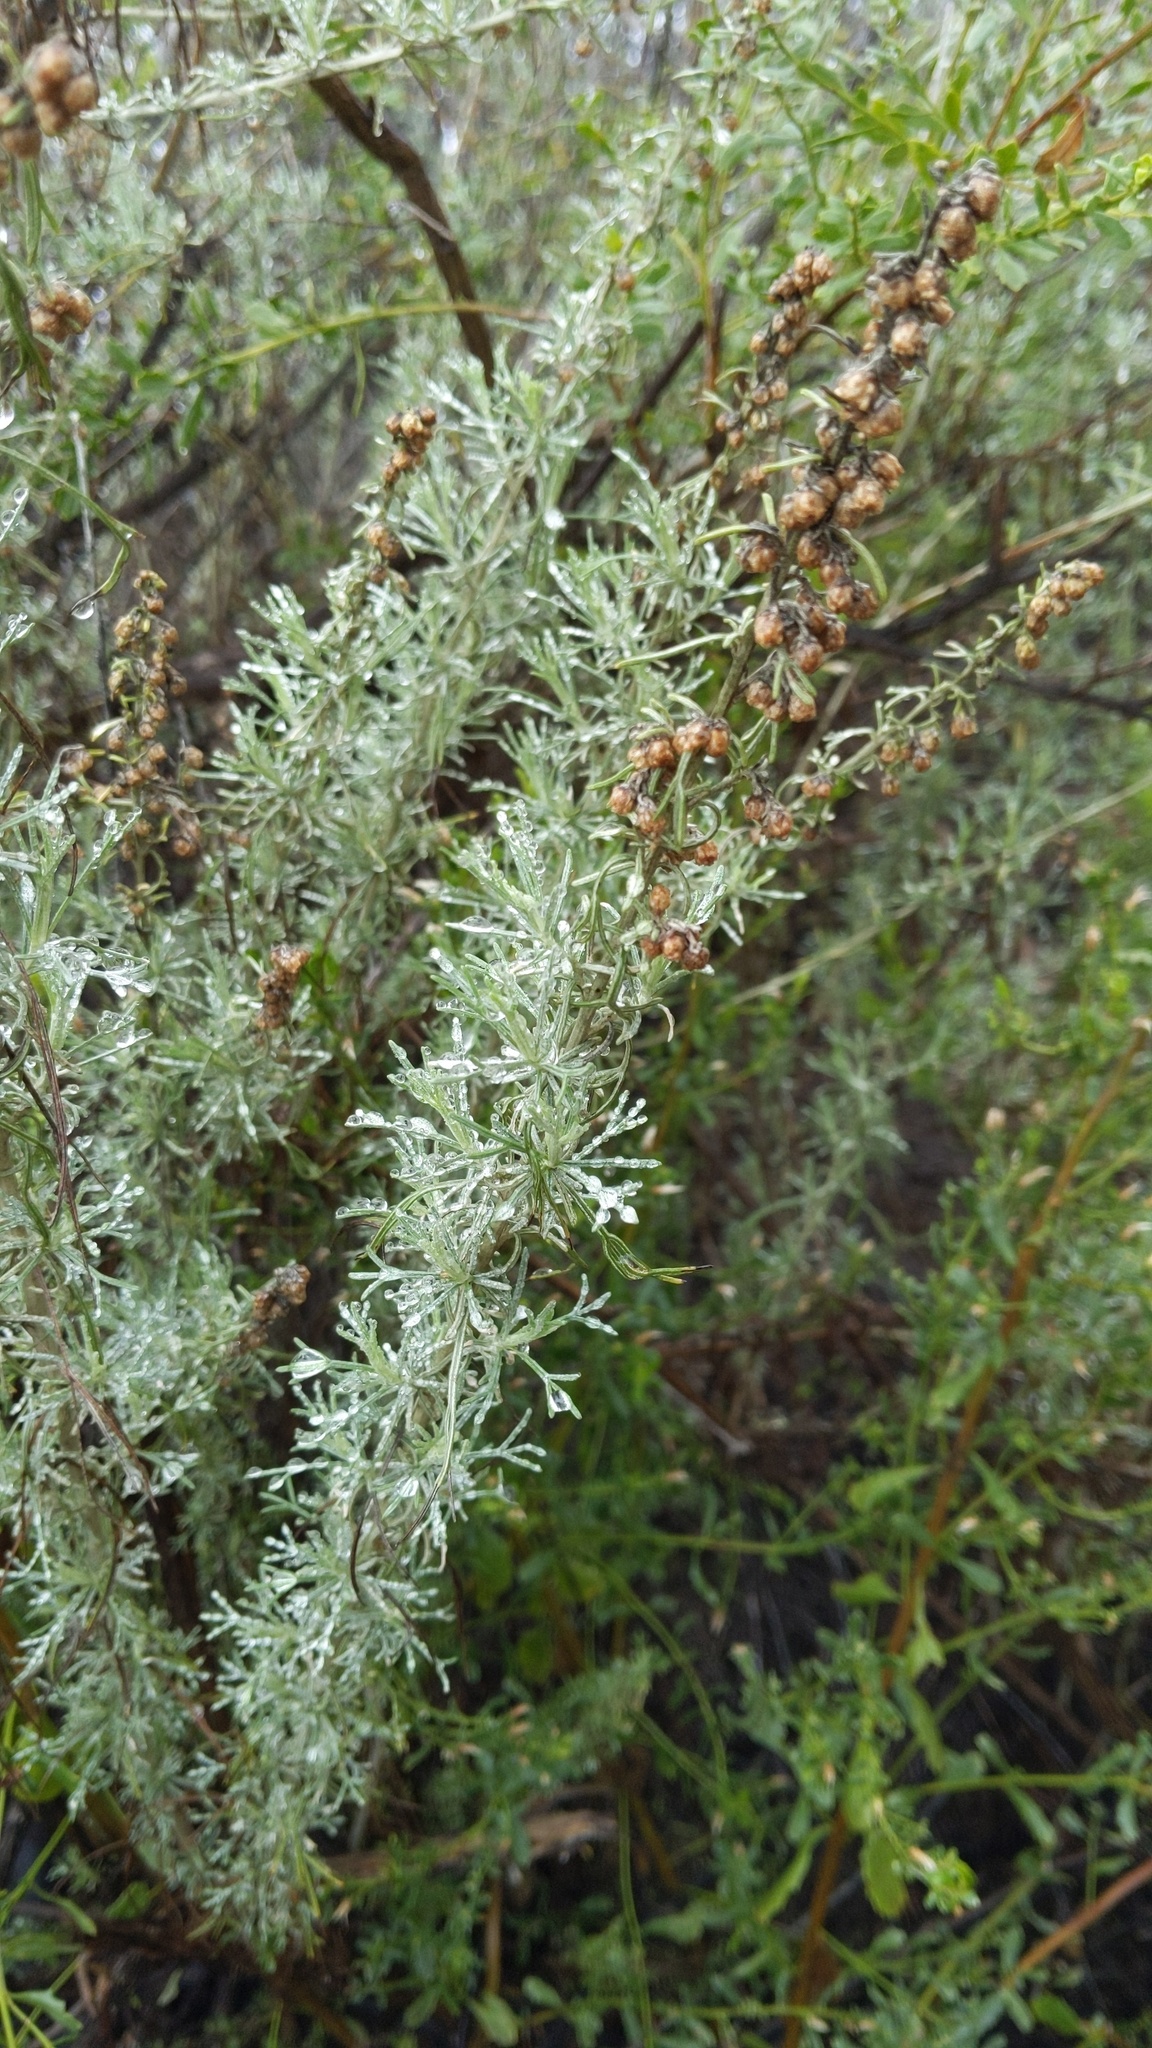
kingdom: Plantae
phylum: Tracheophyta
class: Magnoliopsida
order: Asterales
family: Asteraceae
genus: Artemisia
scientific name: Artemisia californica
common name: California sagebrush
